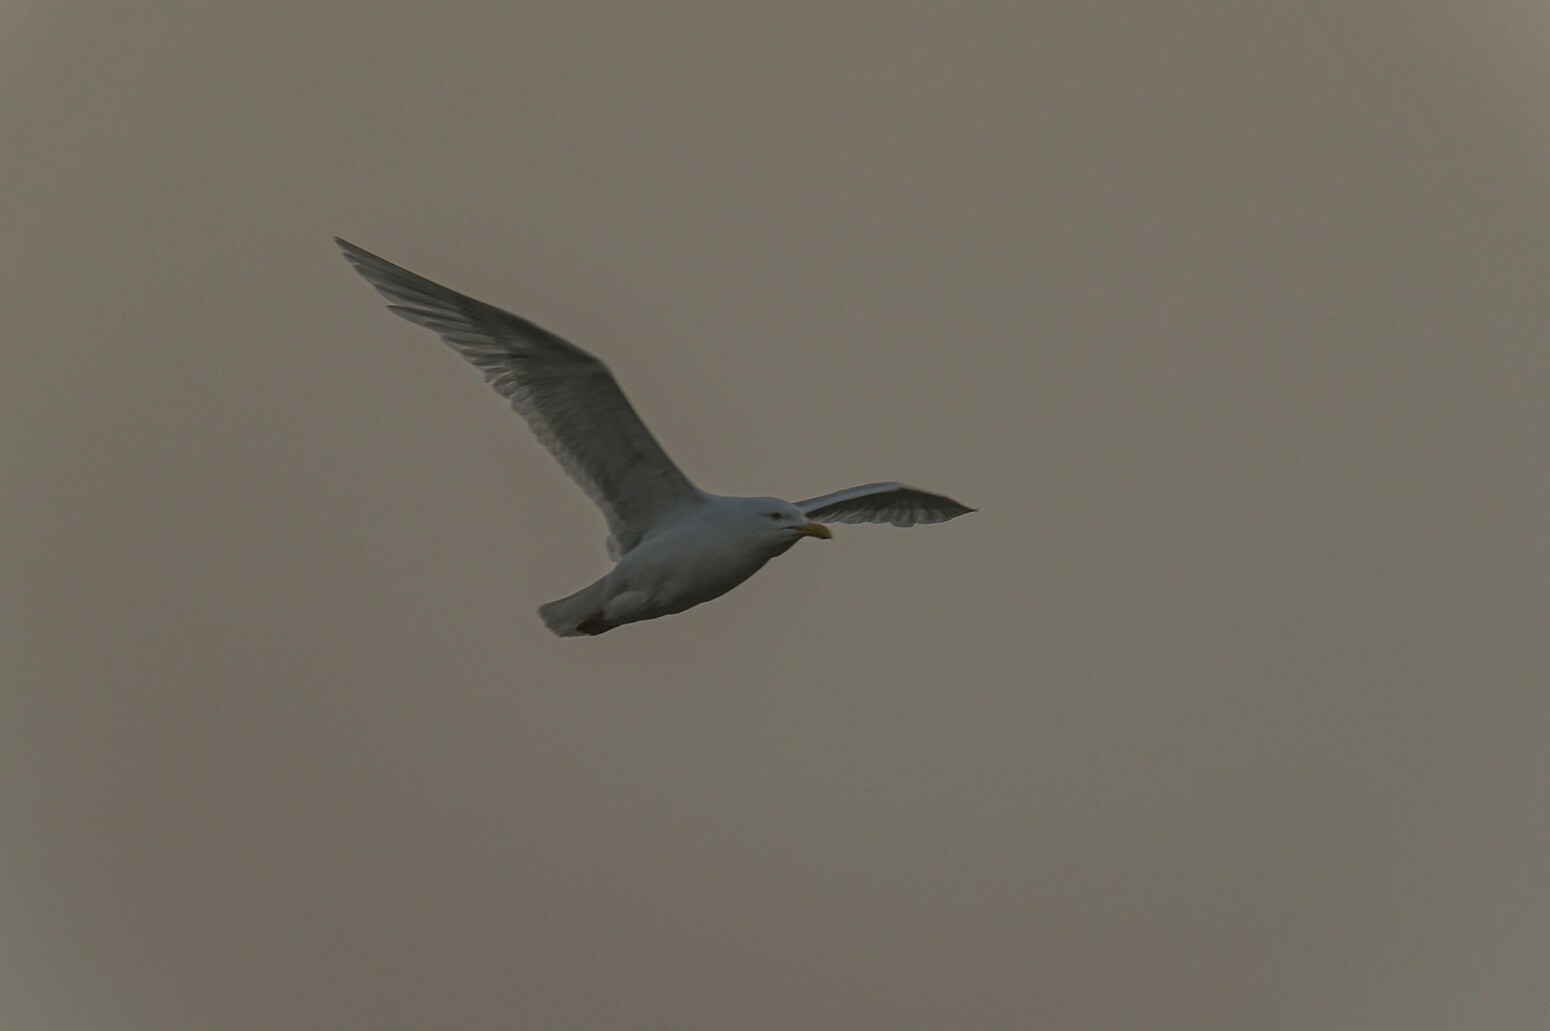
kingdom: Animalia
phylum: Chordata
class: Aves
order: Charadriiformes
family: Laridae
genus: Larus
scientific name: Larus hyperboreus
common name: Glaucous gull
